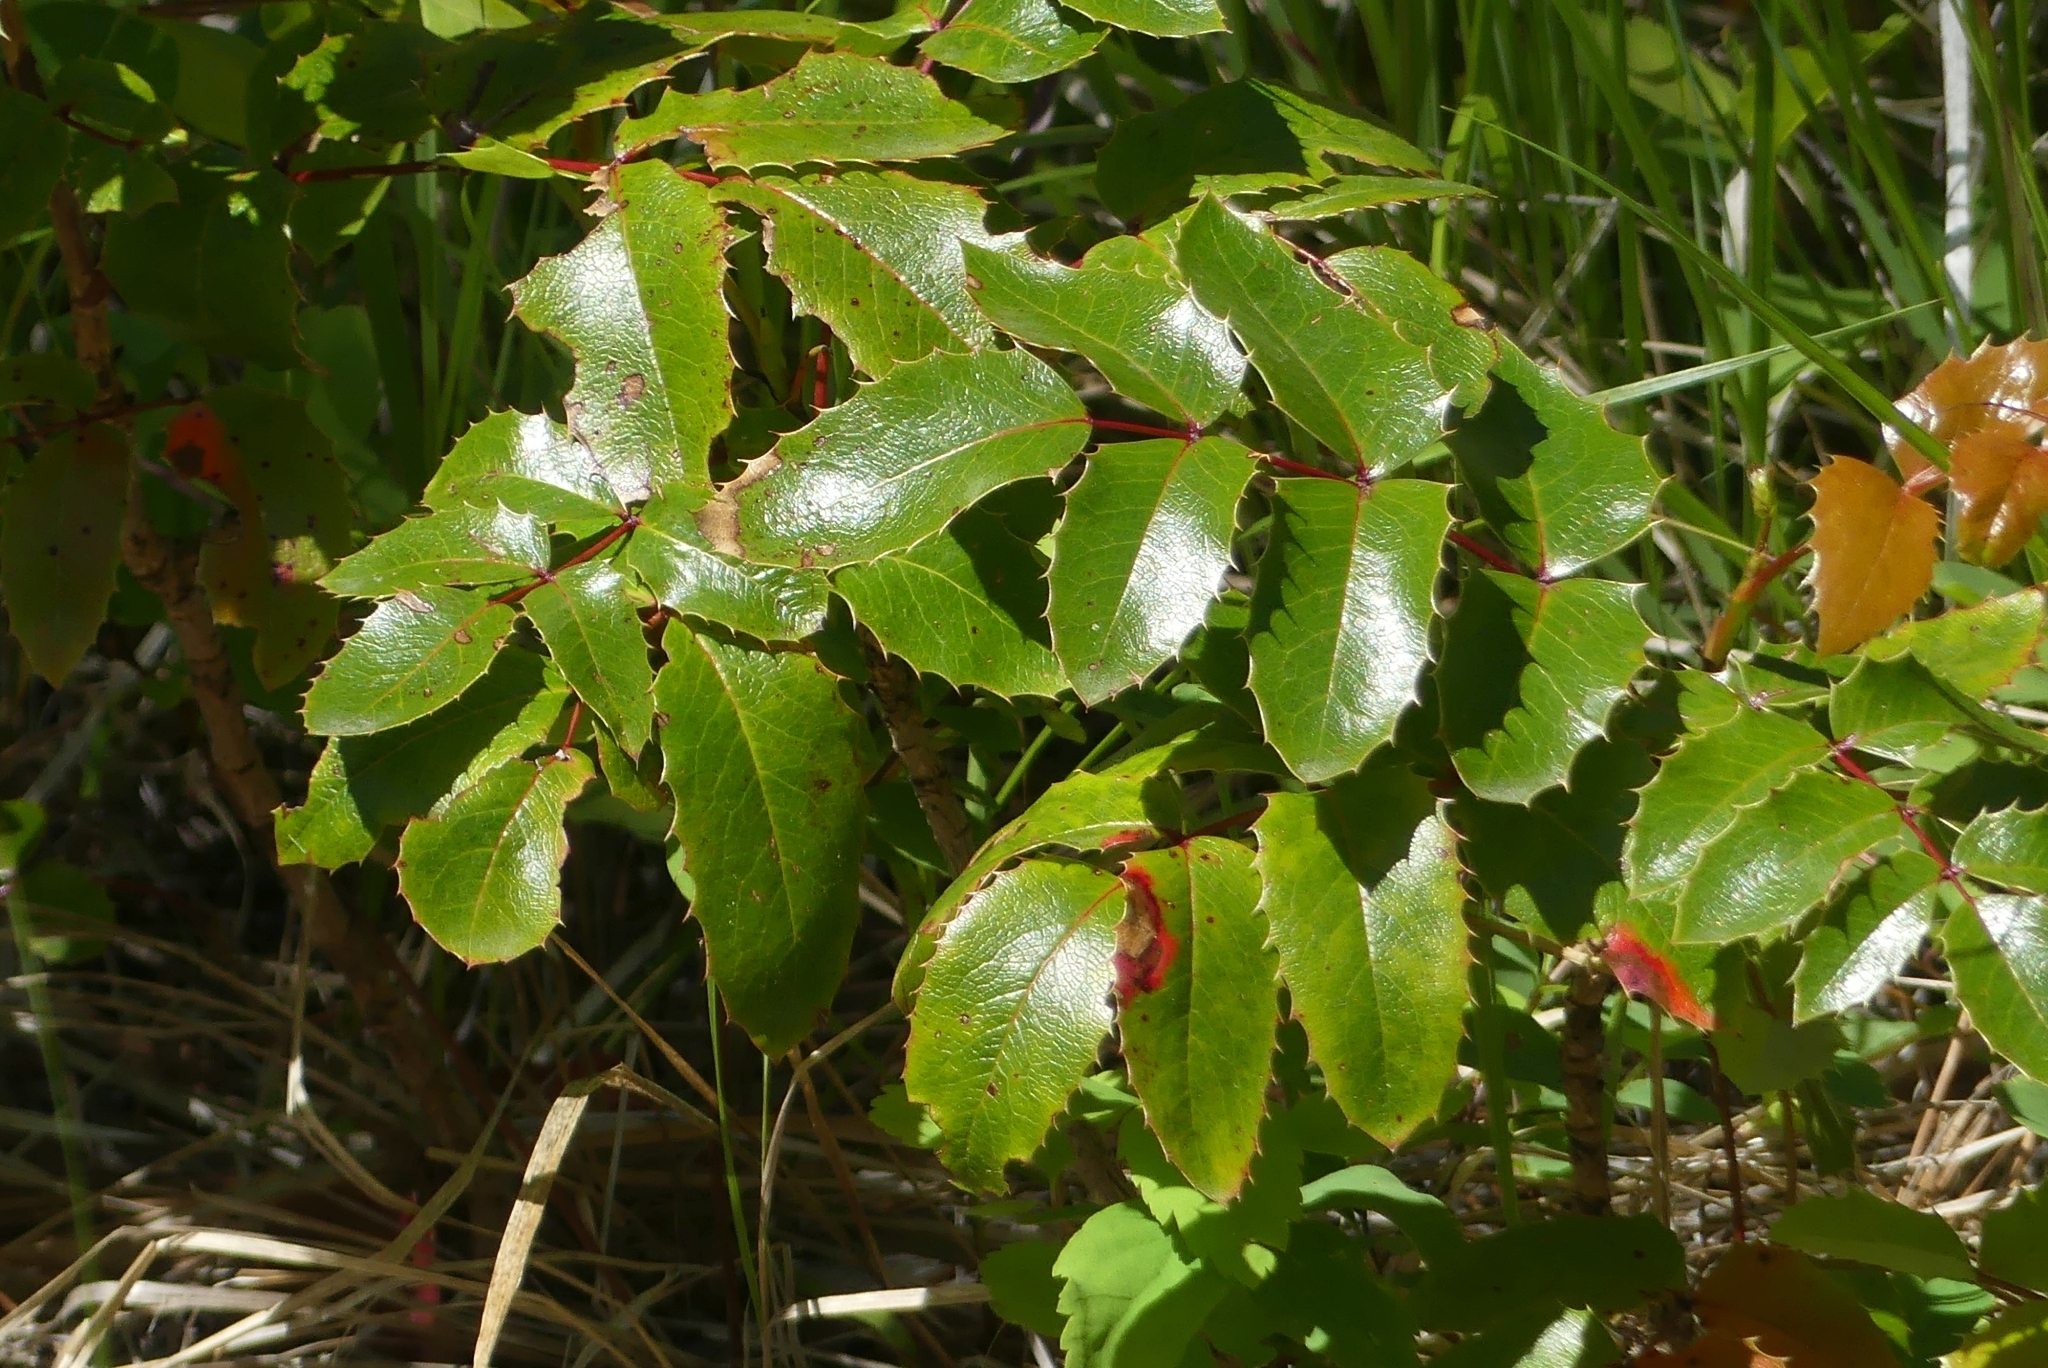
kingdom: Plantae
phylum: Tracheophyta
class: Magnoliopsida
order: Ranunculales
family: Berberidaceae
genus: Mahonia
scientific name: Mahonia aquifolium
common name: Oregon-grape
